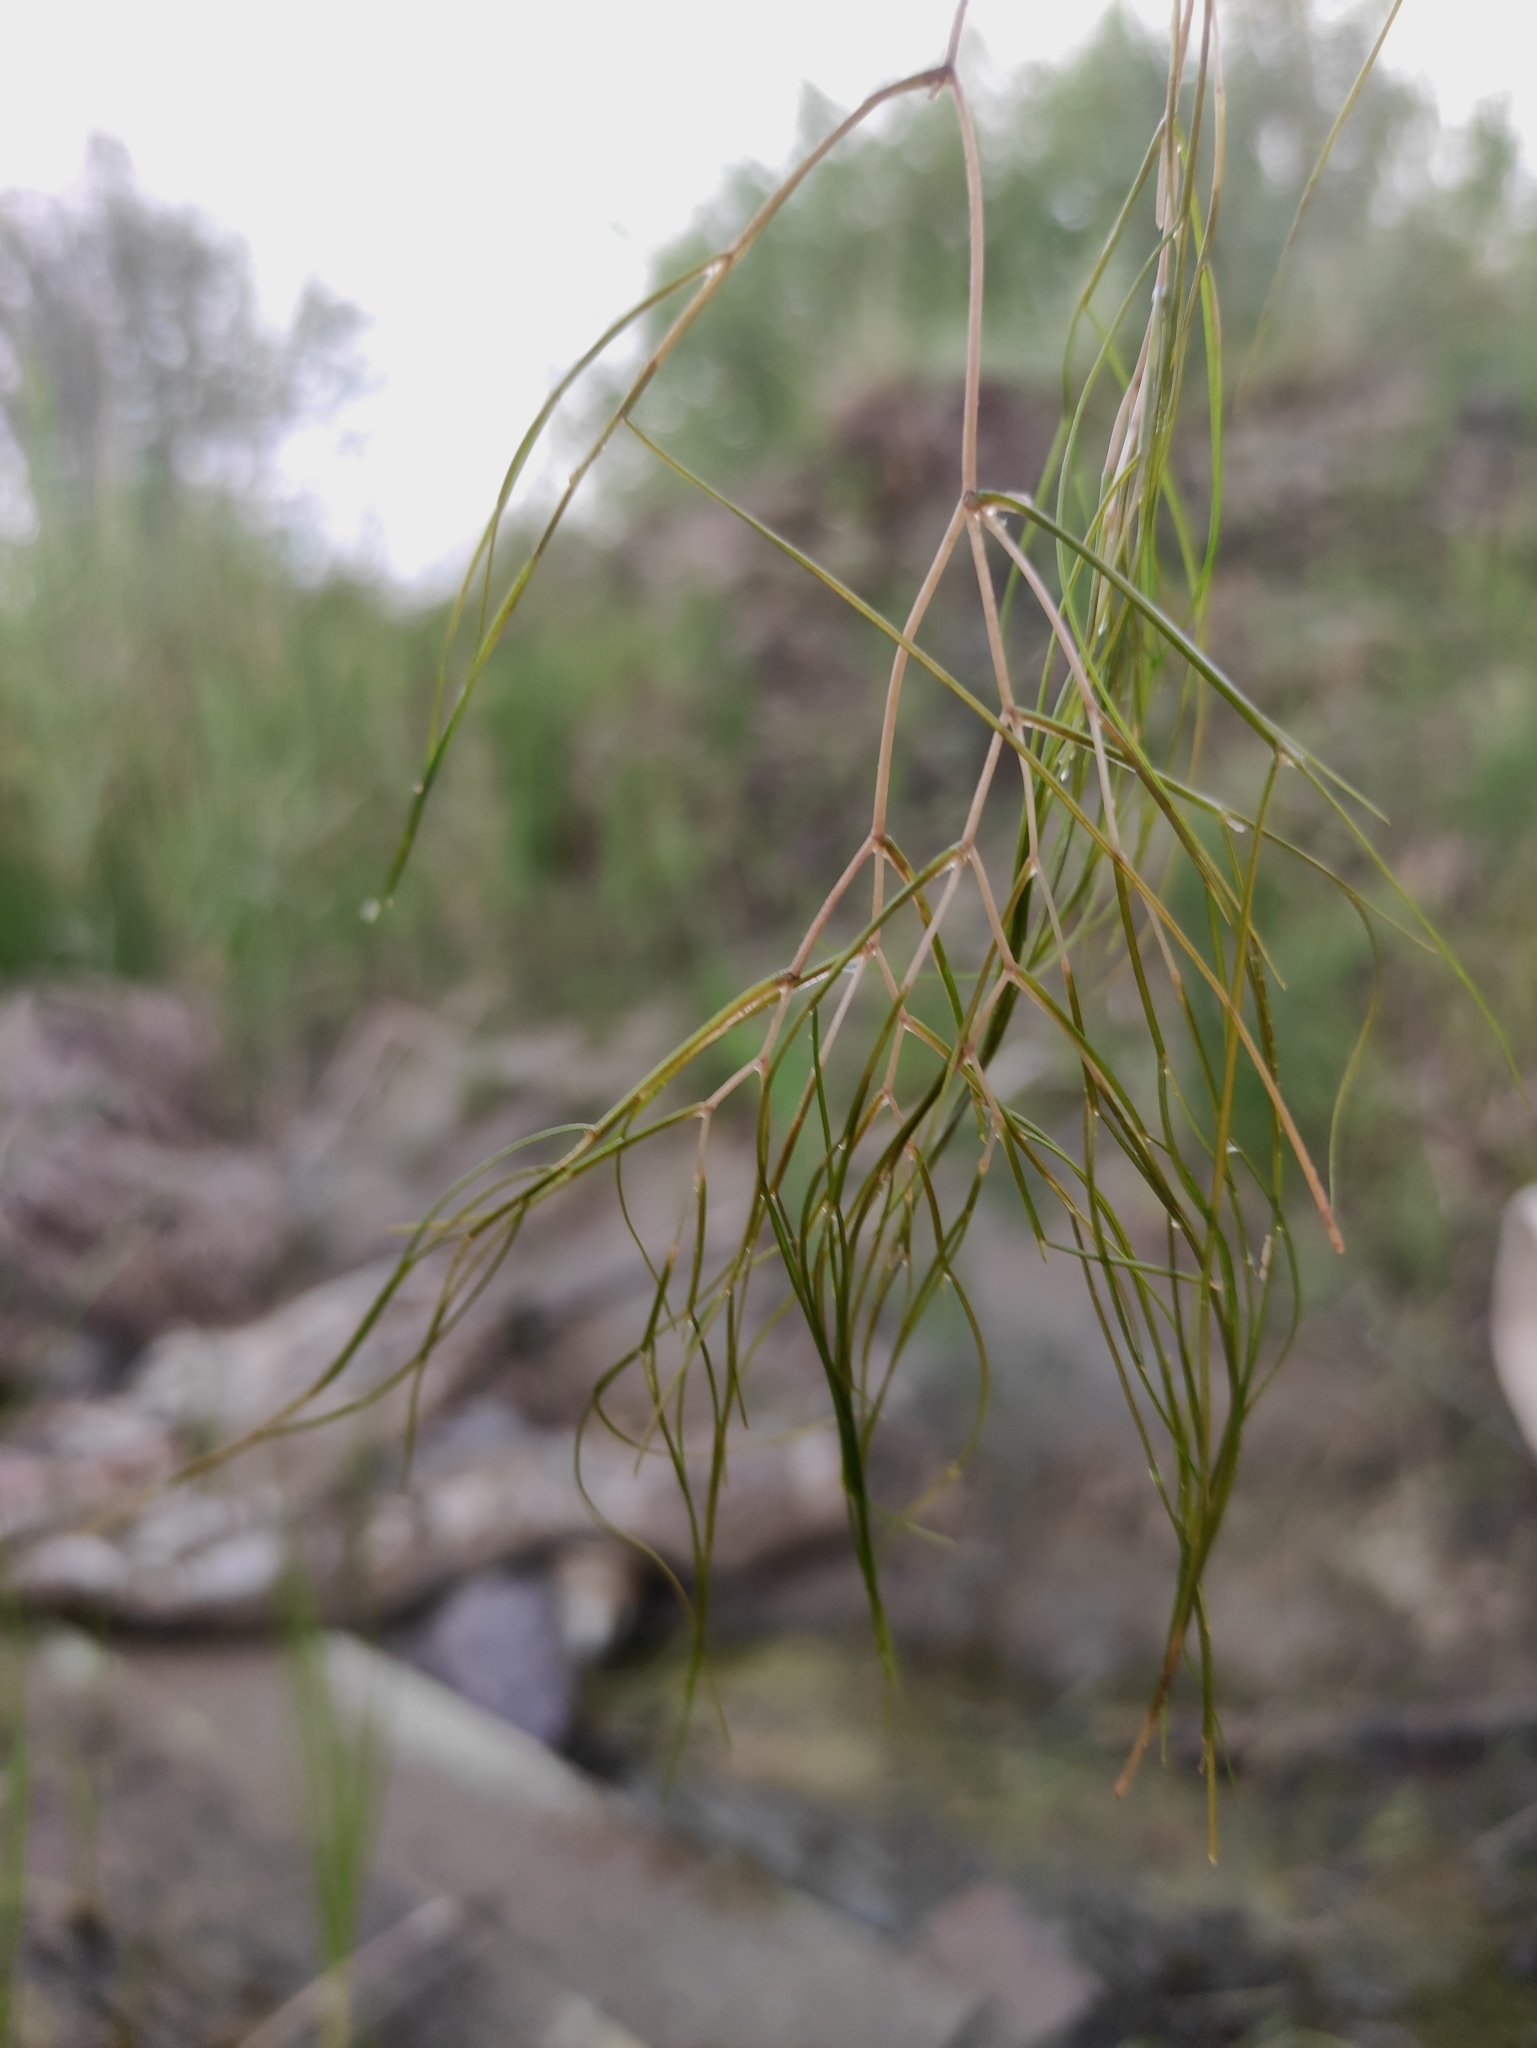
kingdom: Plantae
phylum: Tracheophyta
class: Liliopsida
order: Alismatales
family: Potamogetonaceae
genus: Stuckenia
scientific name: Stuckenia pectinata
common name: Sago pondweed
